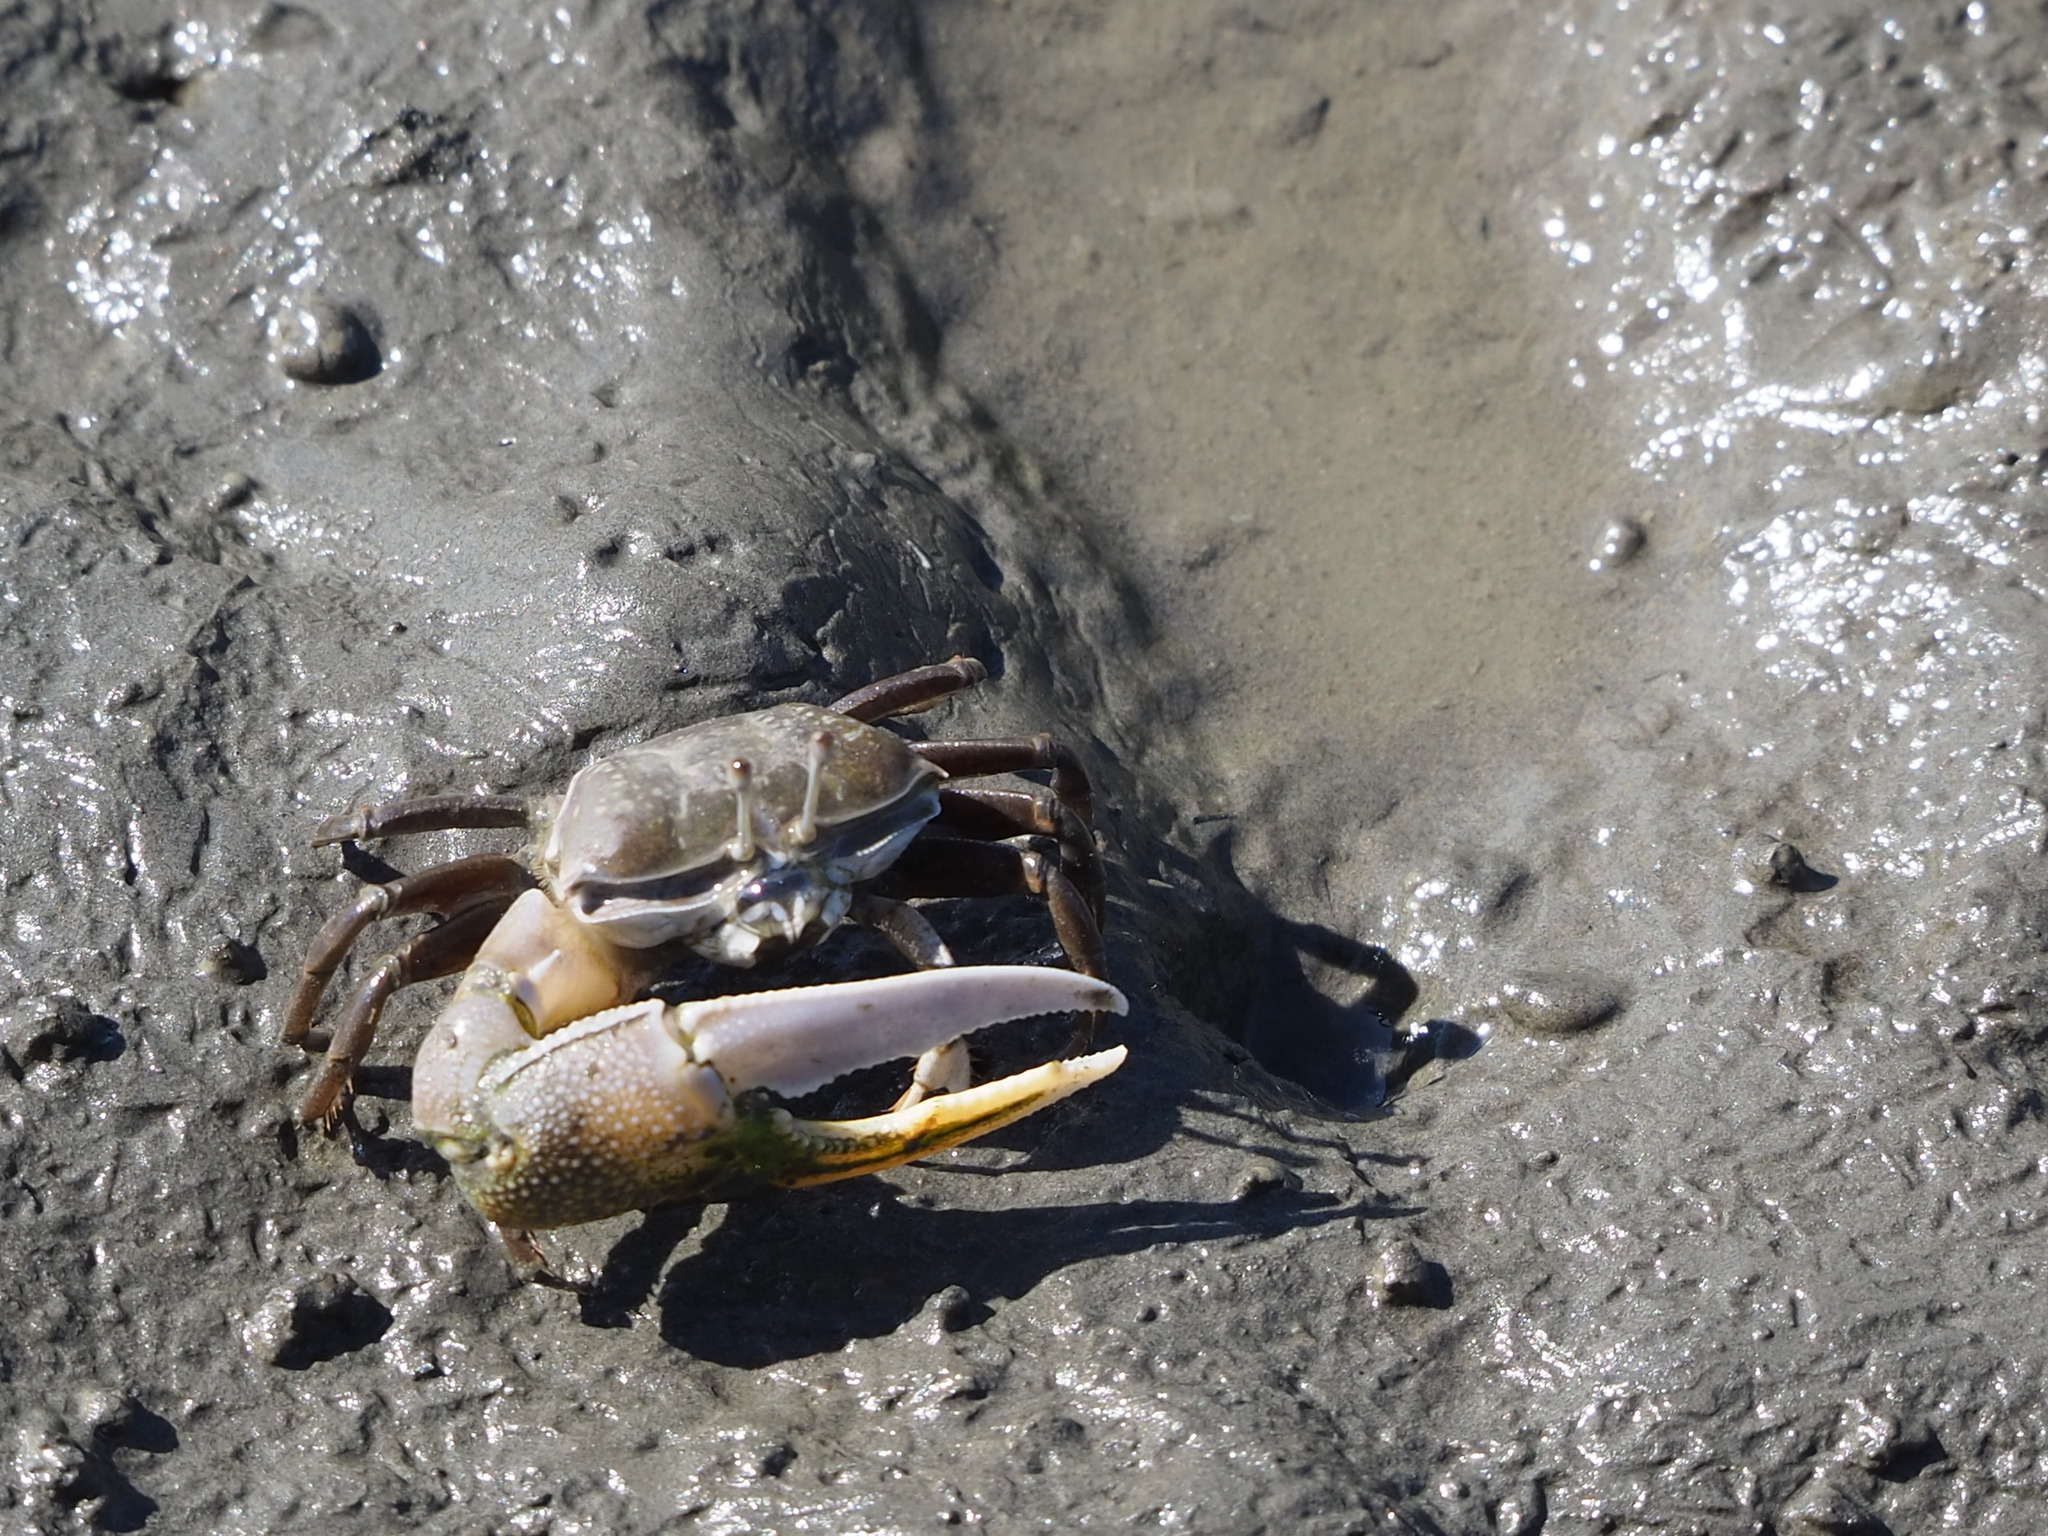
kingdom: Animalia
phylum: Arthropoda
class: Malacostraca
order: Decapoda
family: Ocypodidae
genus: Gelasimus
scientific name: Gelasimus borealis
